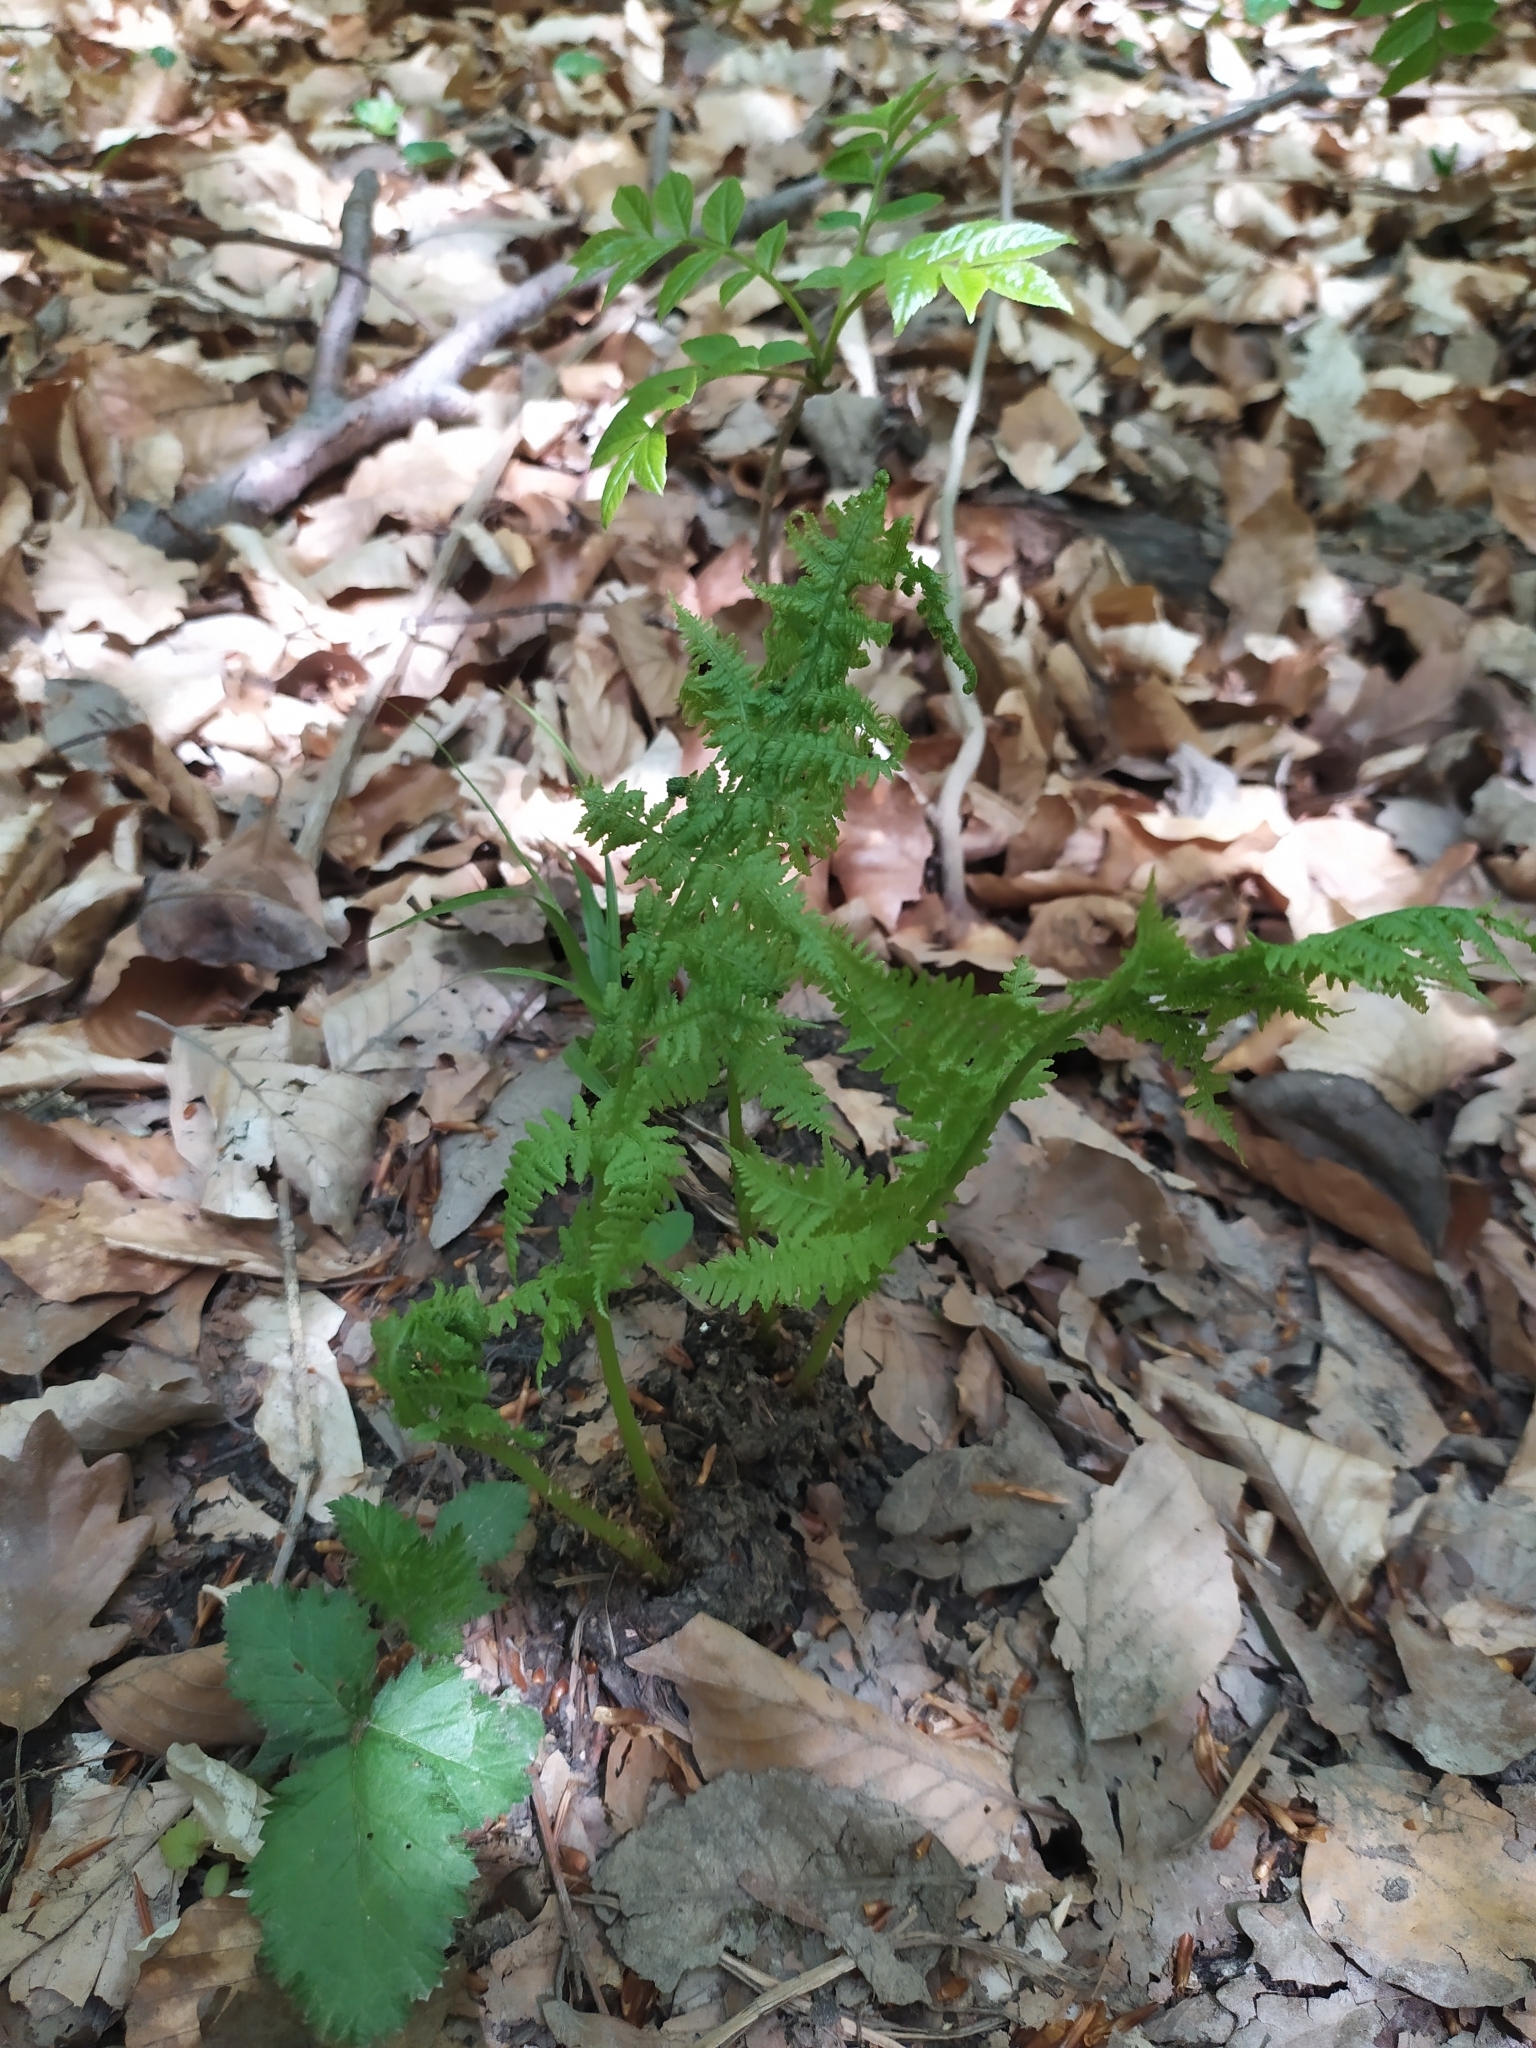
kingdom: Plantae
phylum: Tracheophyta
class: Polypodiopsida
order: Polypodiales
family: Athyriaceae
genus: Athyrium
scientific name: Athyrium filix-femina
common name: Lady fern
